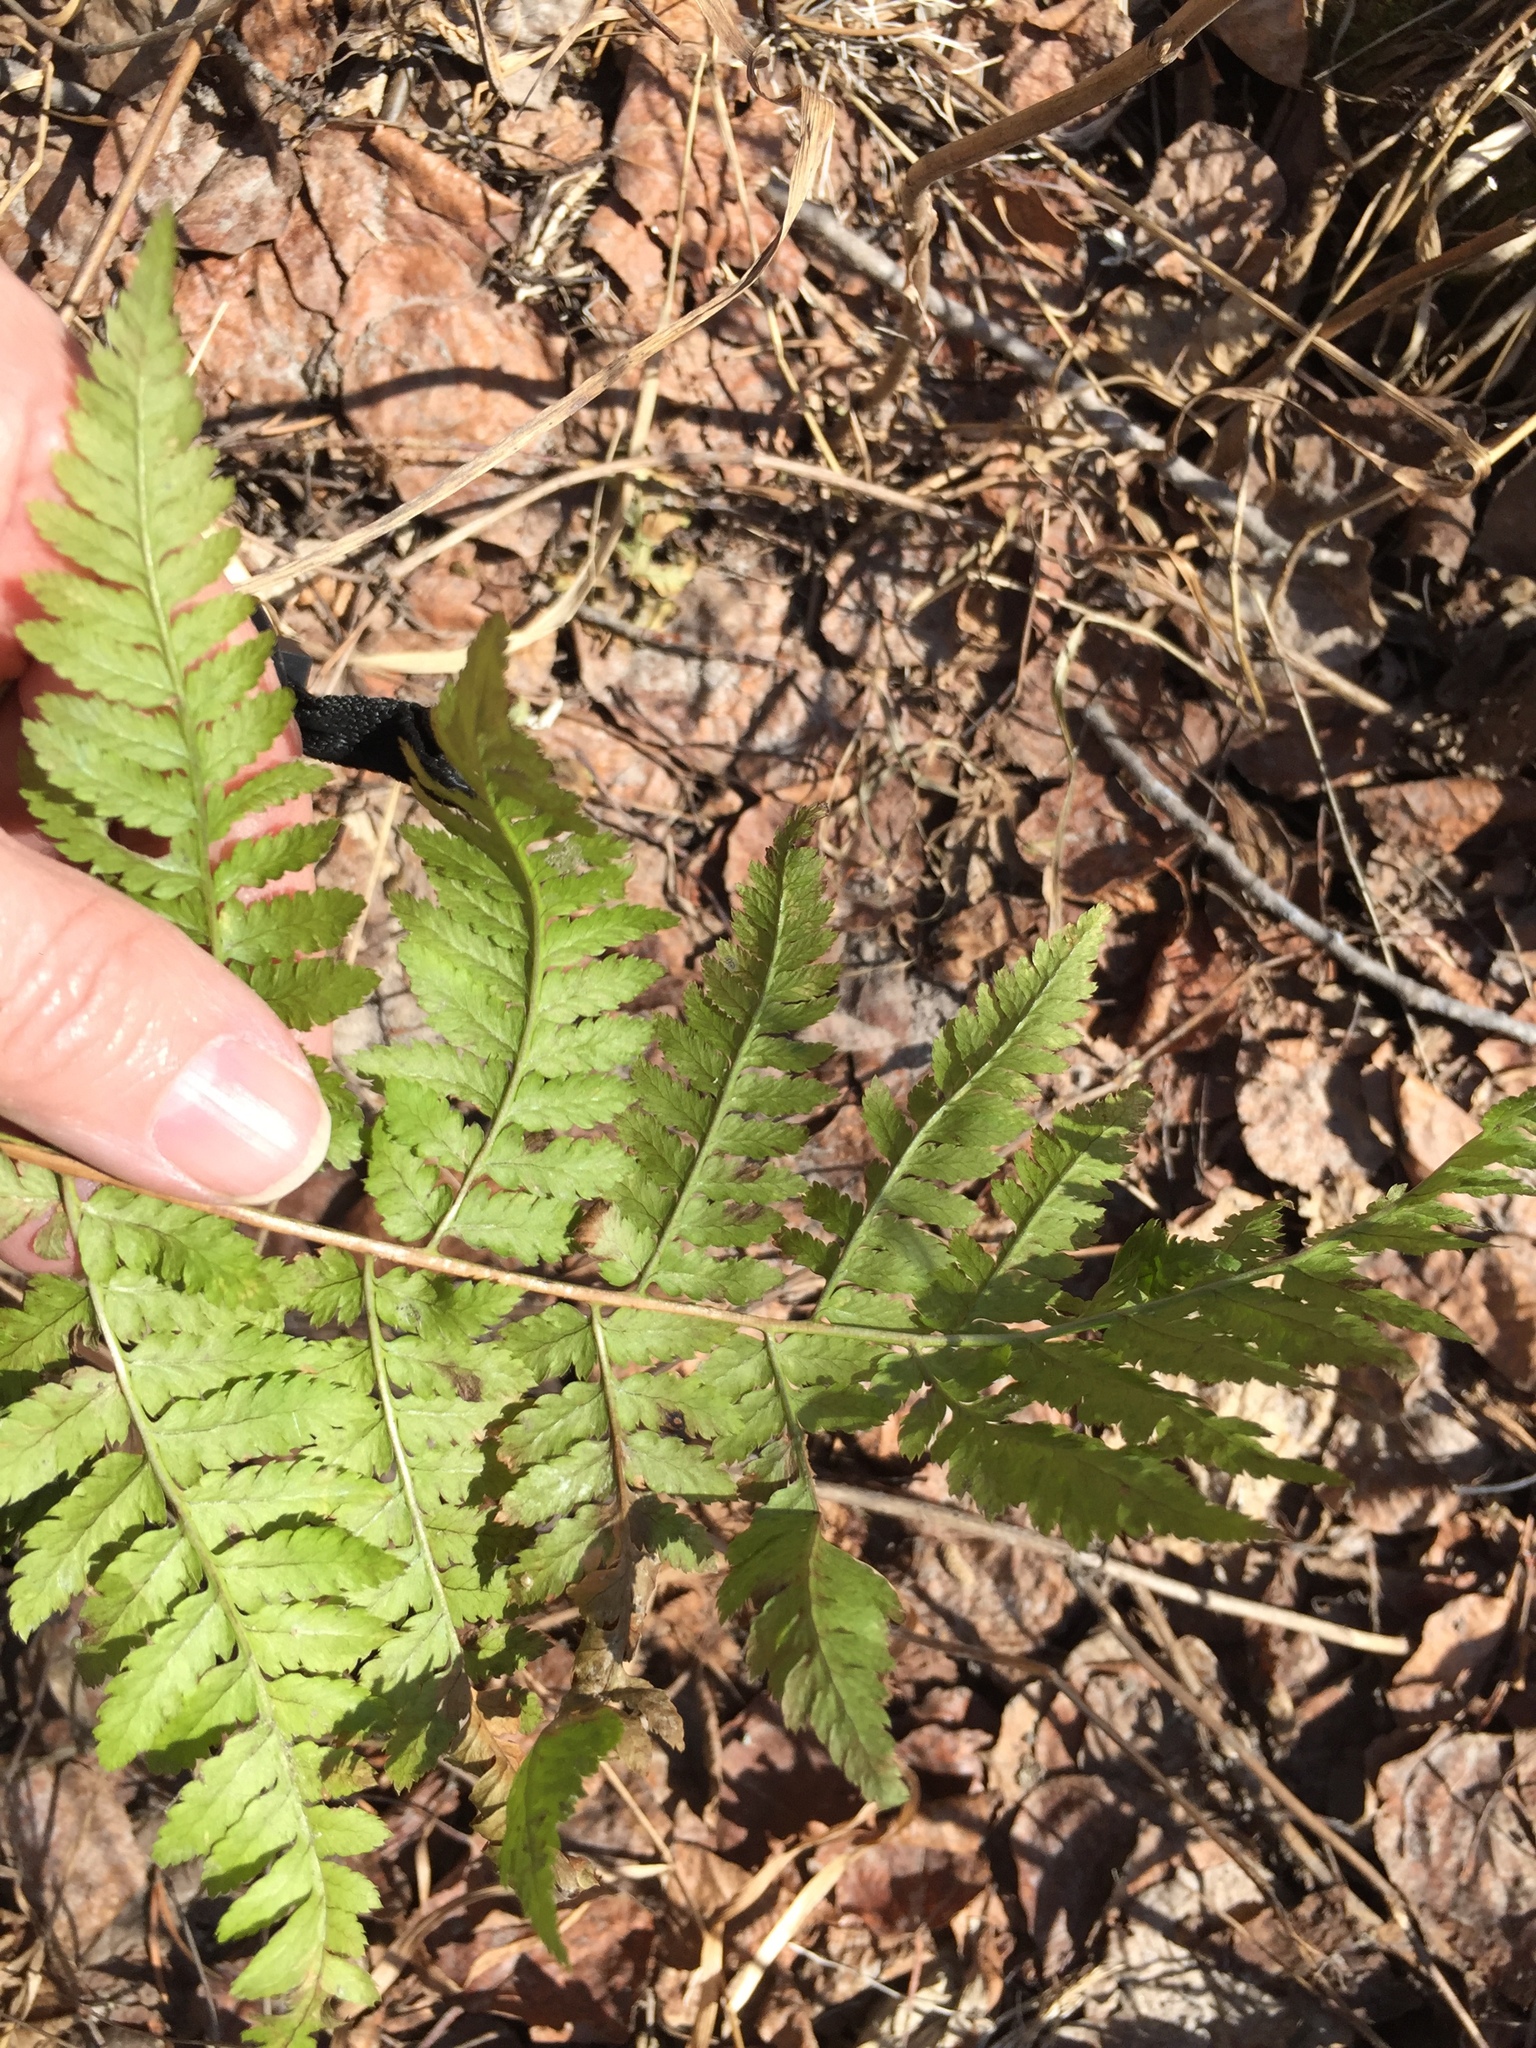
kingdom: Plantae
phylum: Tracheophyta
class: Polypodiopsida
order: Polypodiales
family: Dryopteridaceae
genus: Dryopteris
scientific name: Dryopteris carthusiana
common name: Narrow buckler-fern
